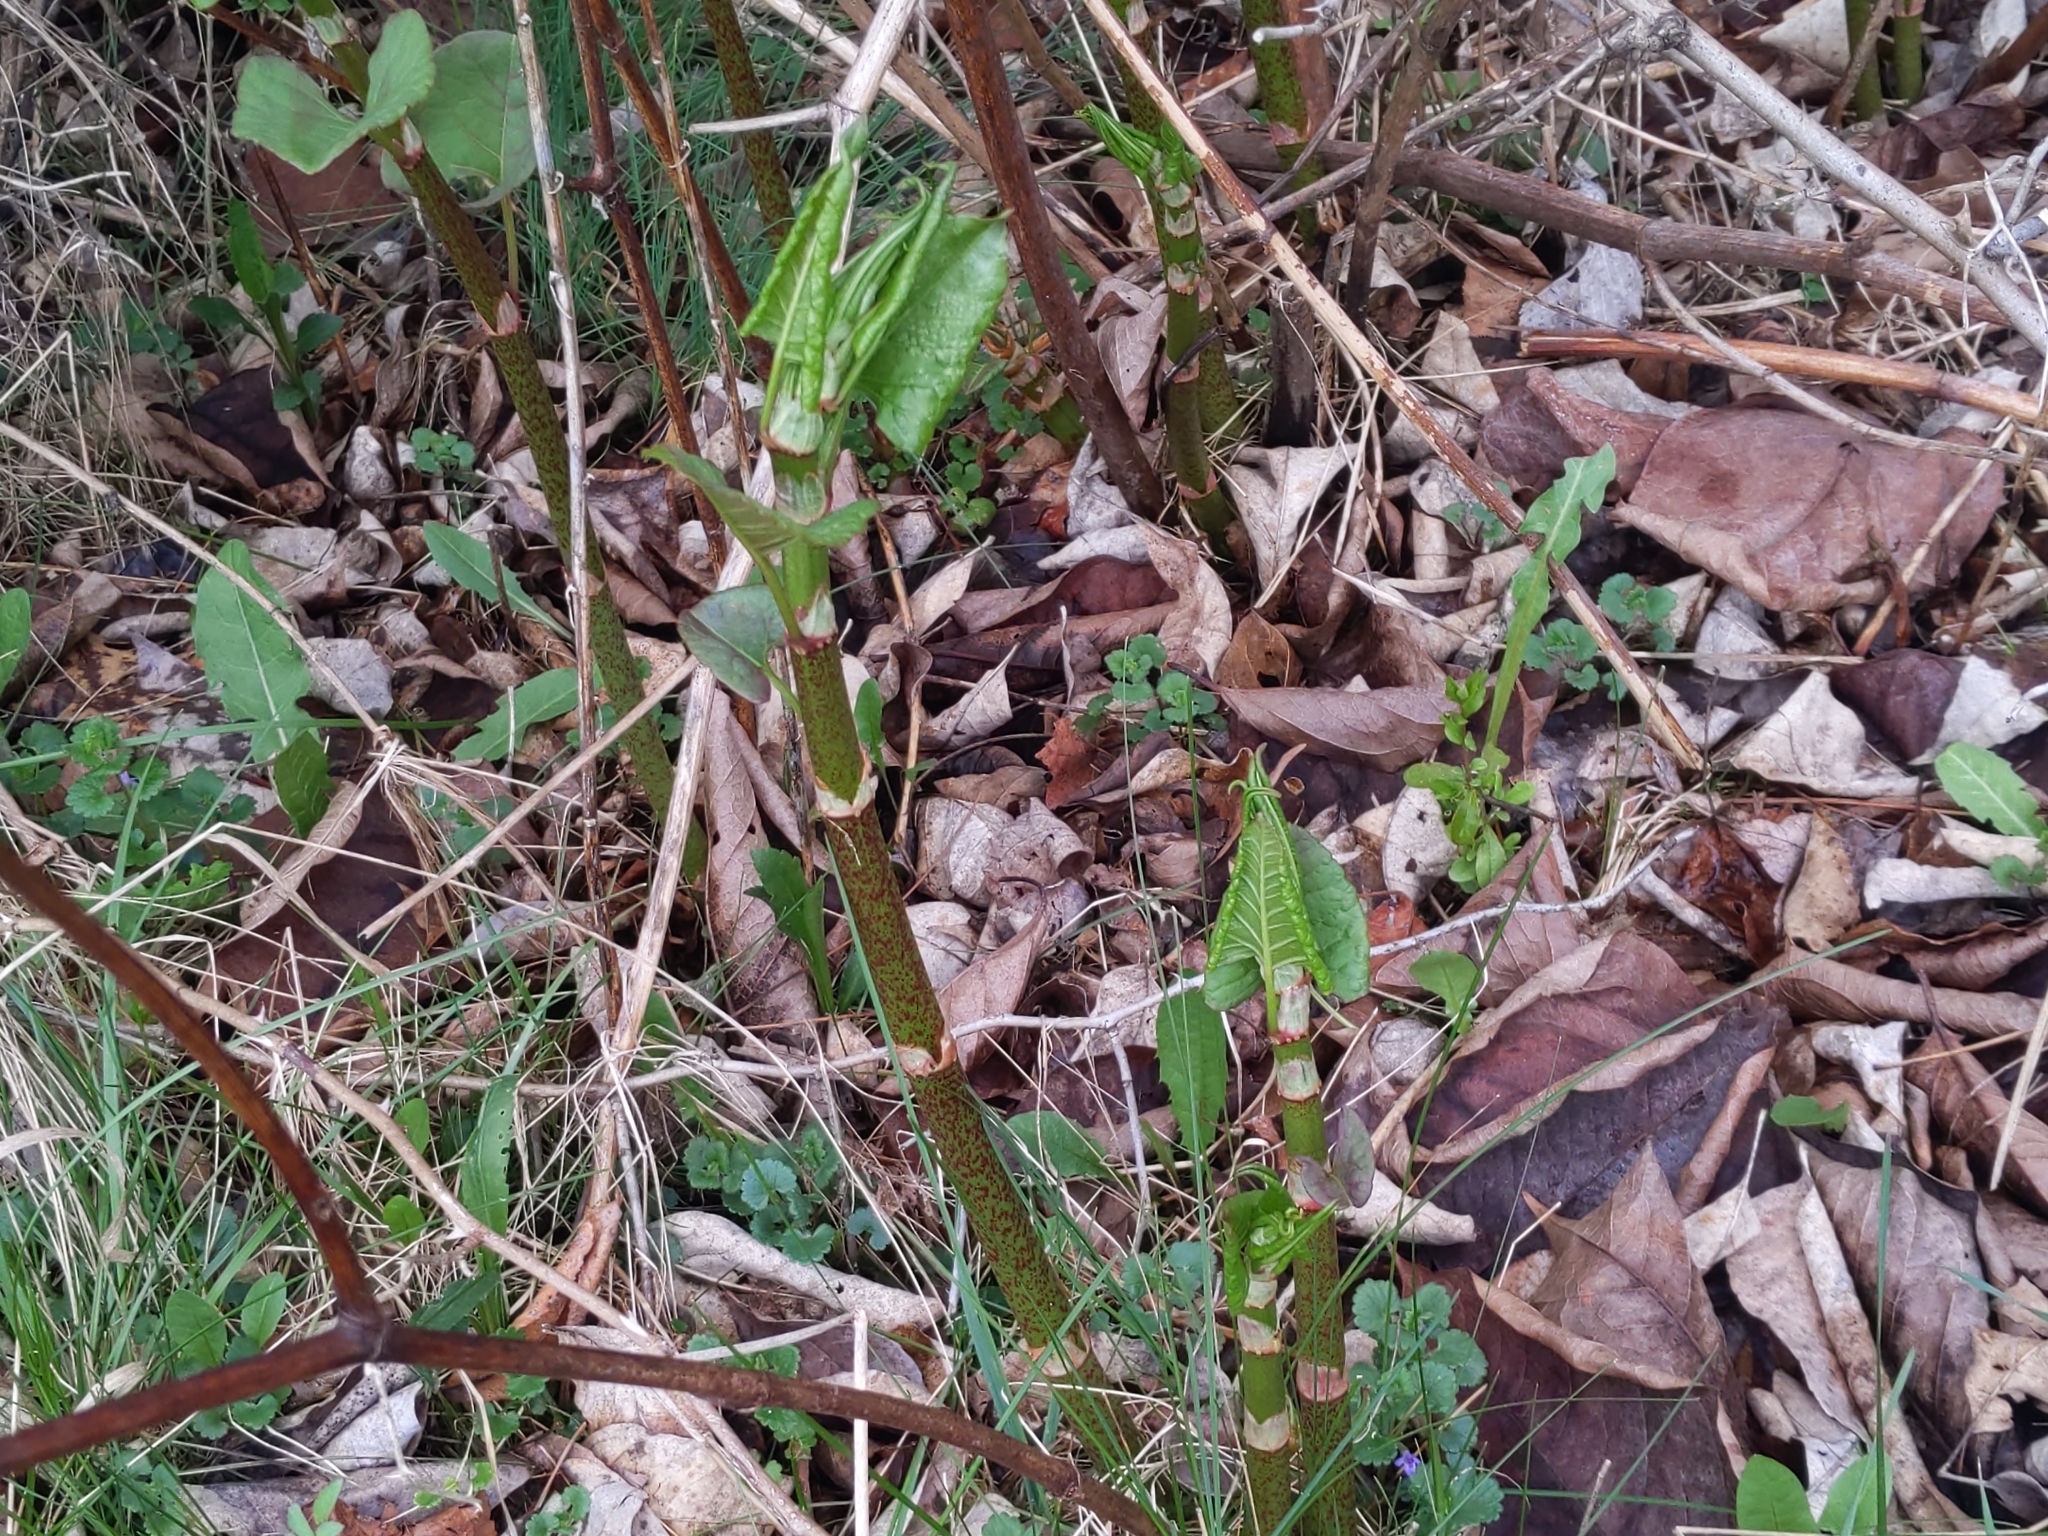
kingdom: Plantae
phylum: Tracheophyta
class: Magnoliopsida
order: Caryophyllales
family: Polygonaceae
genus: Reynoutria
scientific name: Reynoutria japonica
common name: Japanese knotweed
